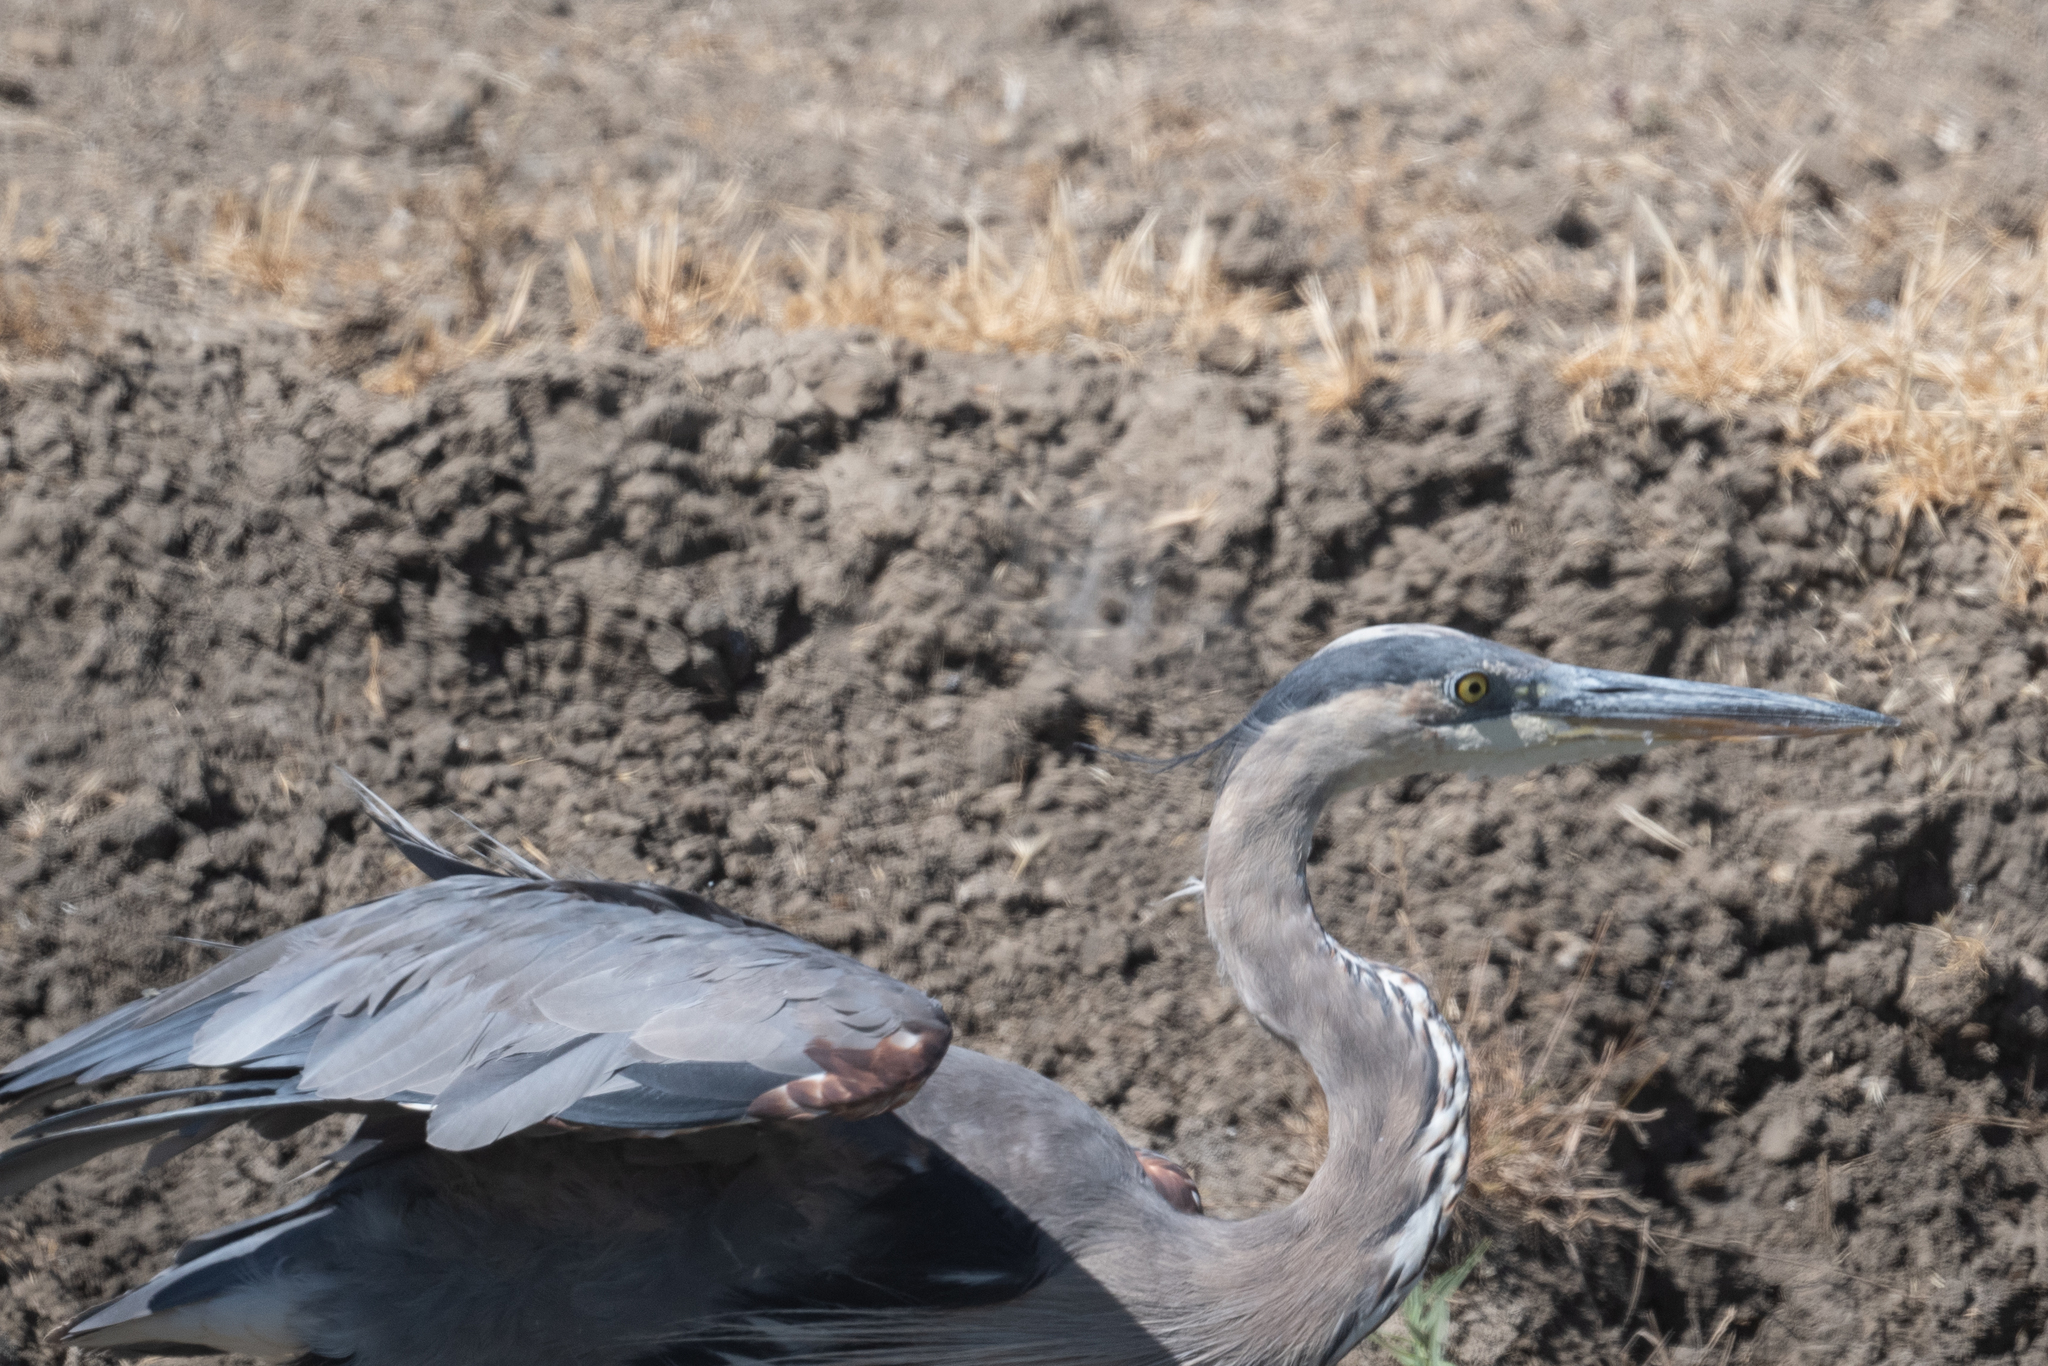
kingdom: Animalia
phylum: Chordata
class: Aves
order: Pelecaniformes
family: Ardeidae
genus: Ardea
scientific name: Ardea herodias
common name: Great blue heron
